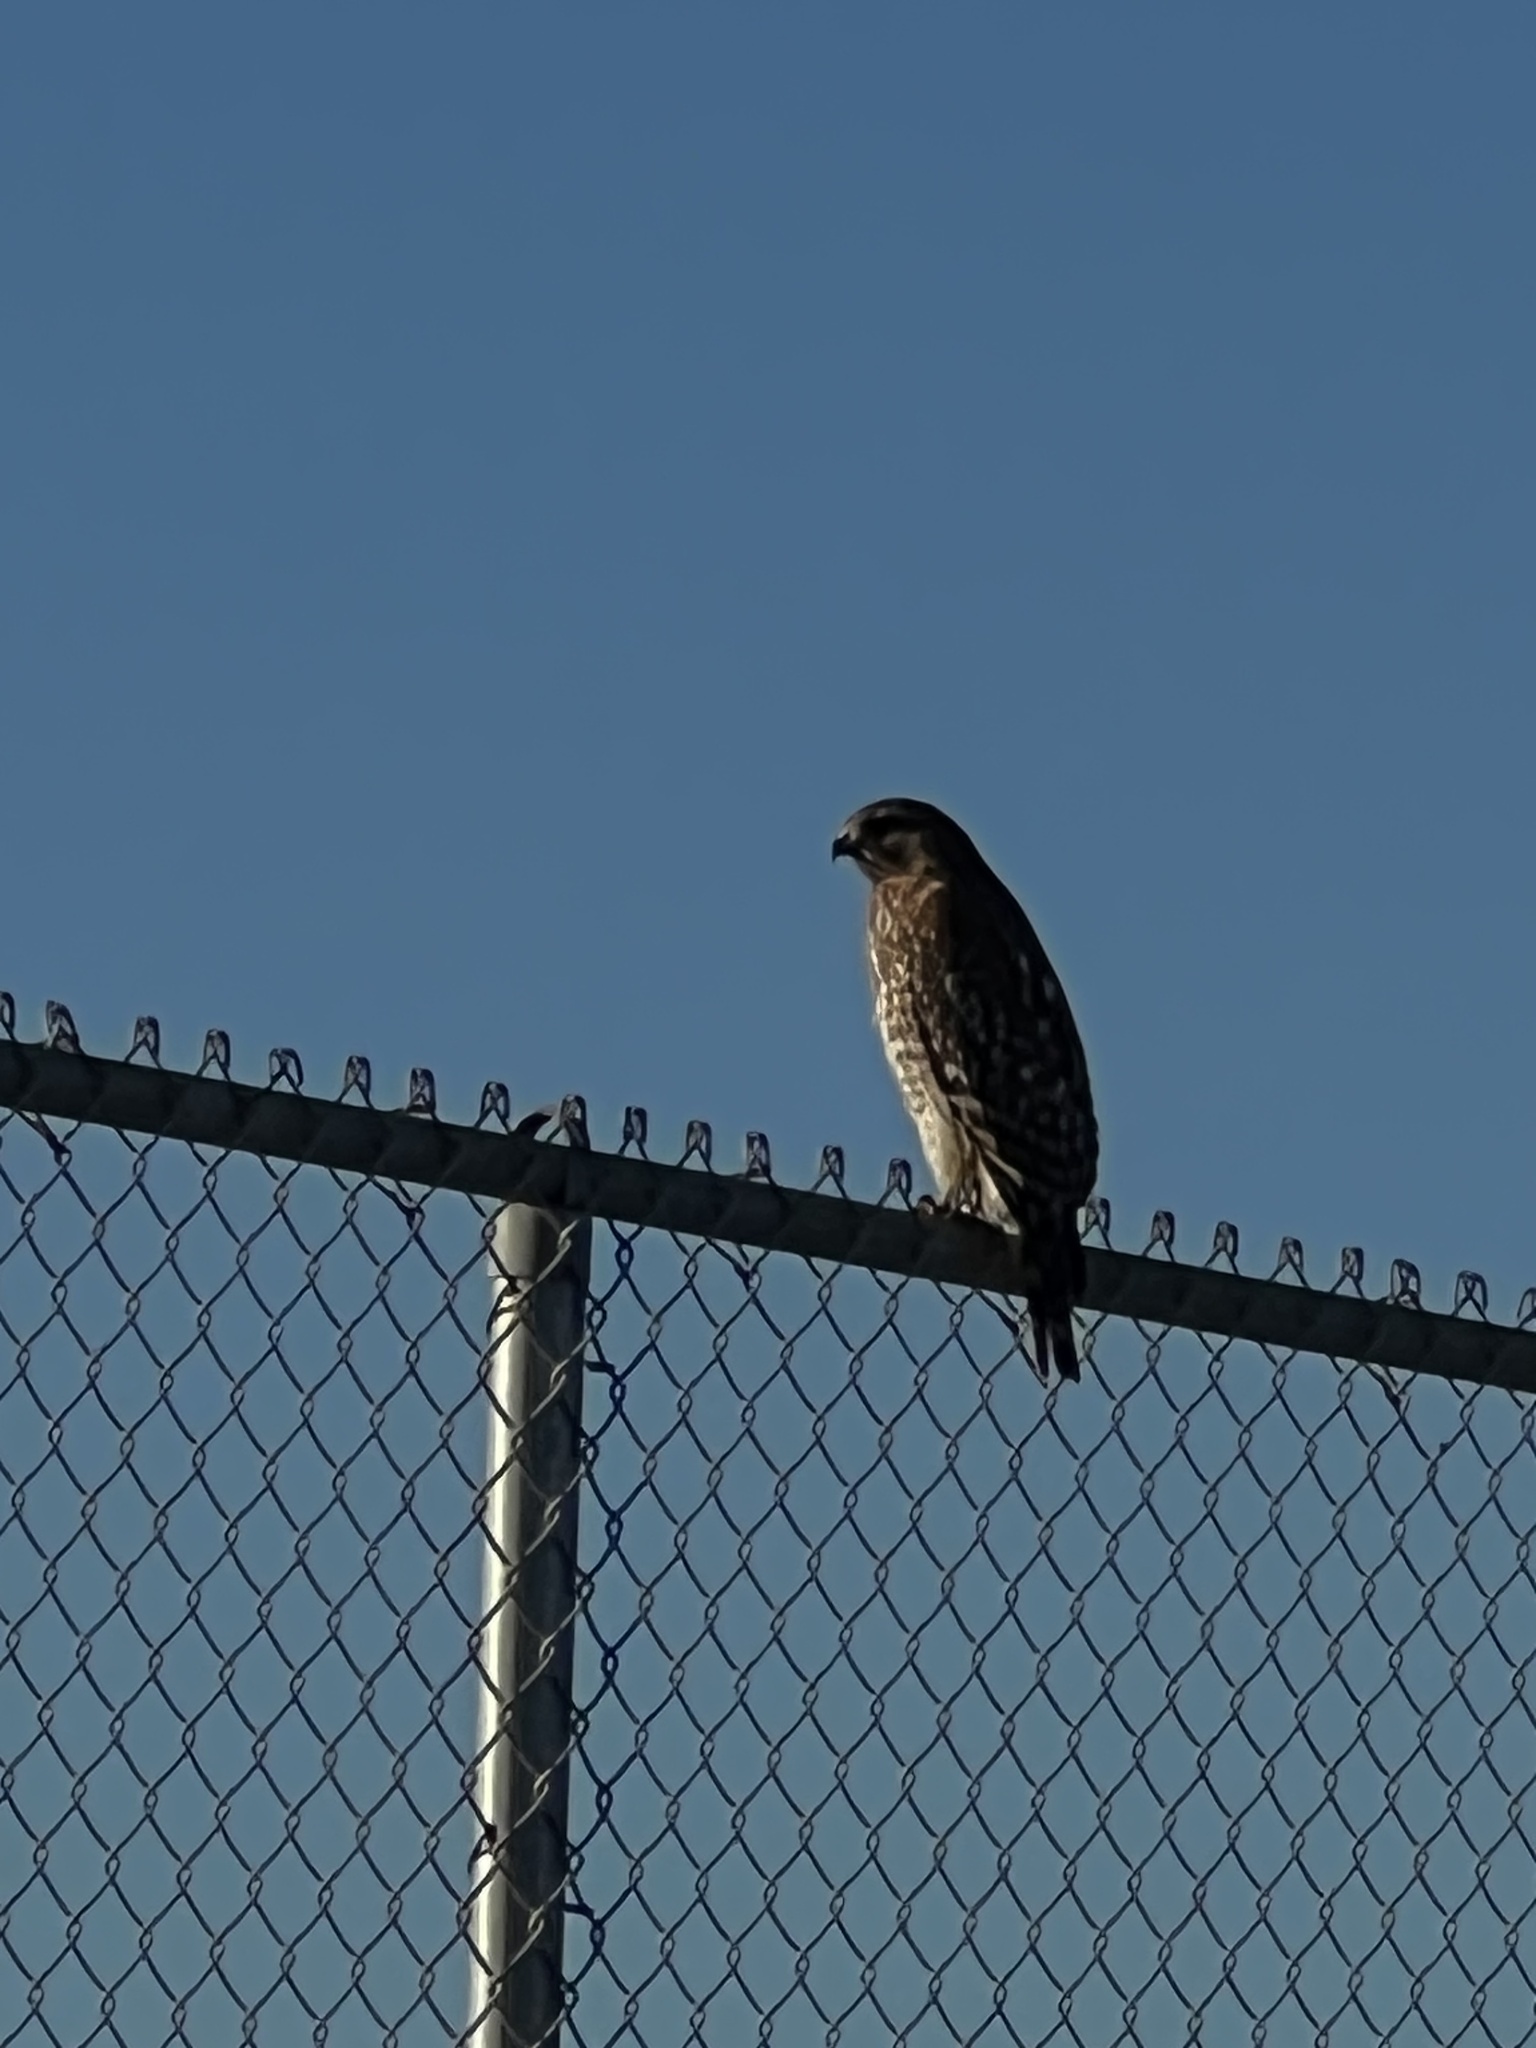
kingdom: Animalia
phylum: Chordata
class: Aves
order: Accipitriformes
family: Accipitridae
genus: Buteo
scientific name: Buteo lineatus
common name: Red-shouldered hawk
